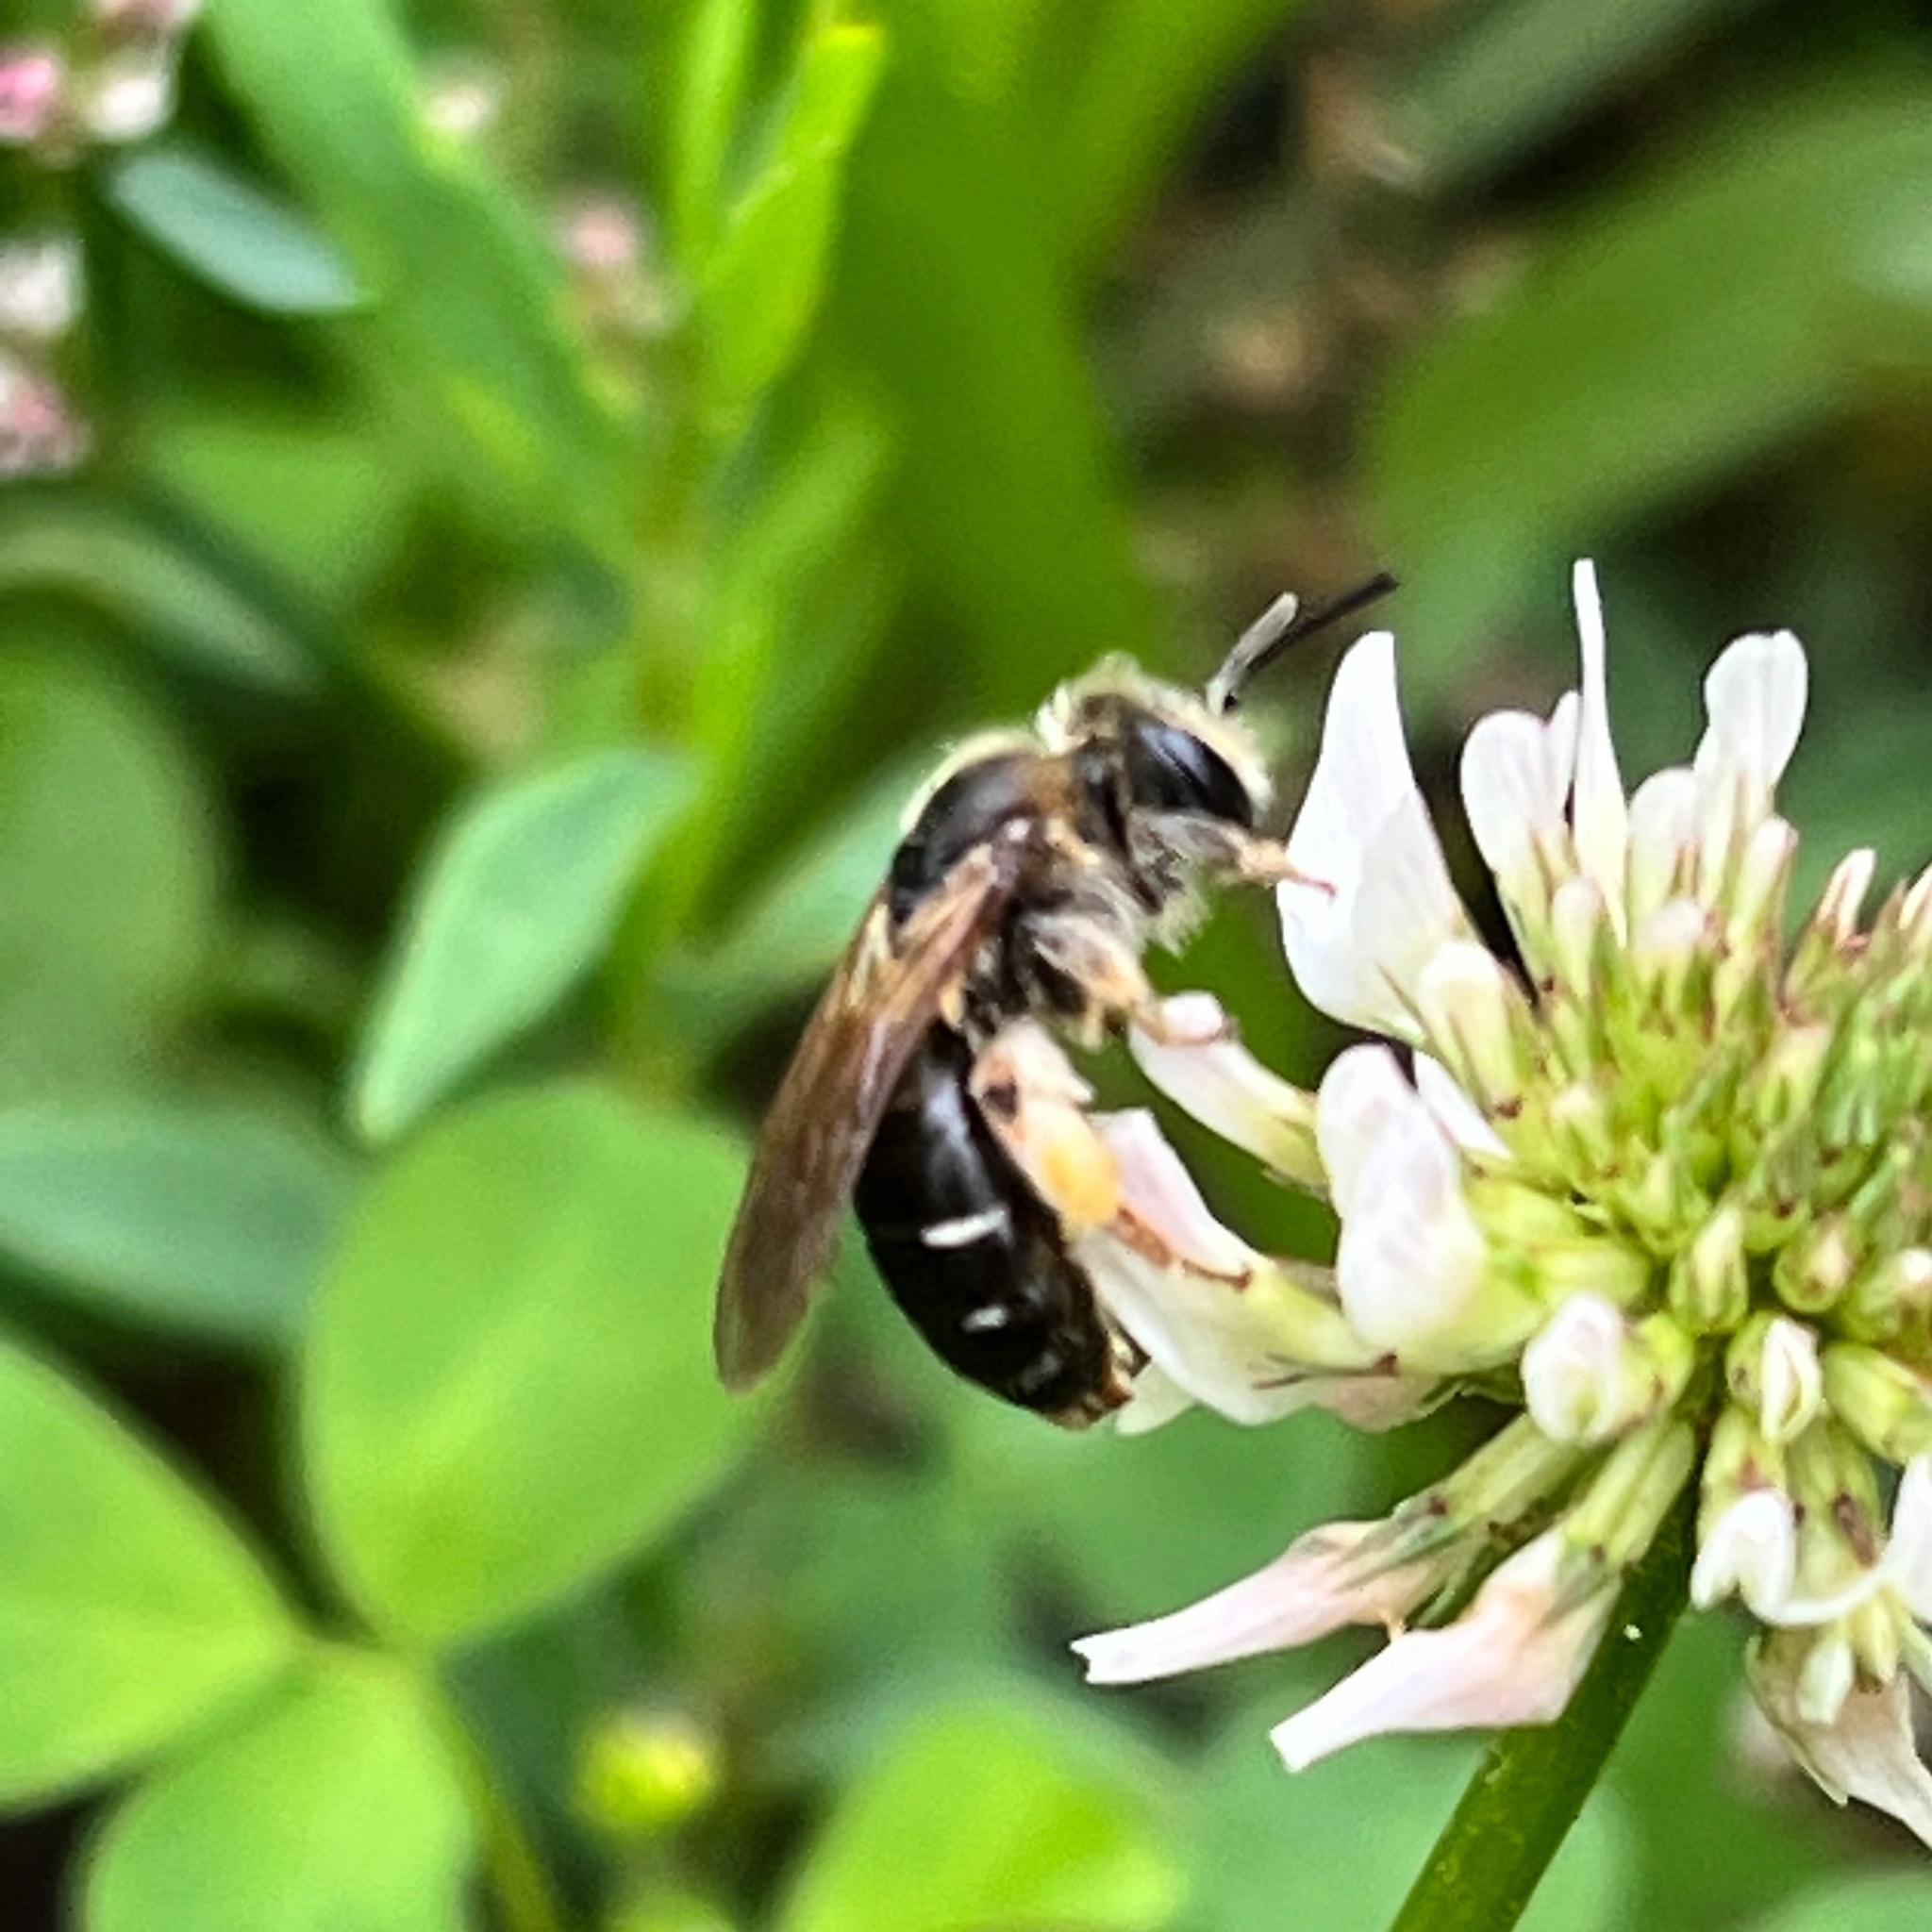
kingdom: Animalia
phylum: Arthropoda
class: Insecta
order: Hymenoptera
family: Andrenidae
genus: Andrena
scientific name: Andrena wilkella
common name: Wilke's mining bee
